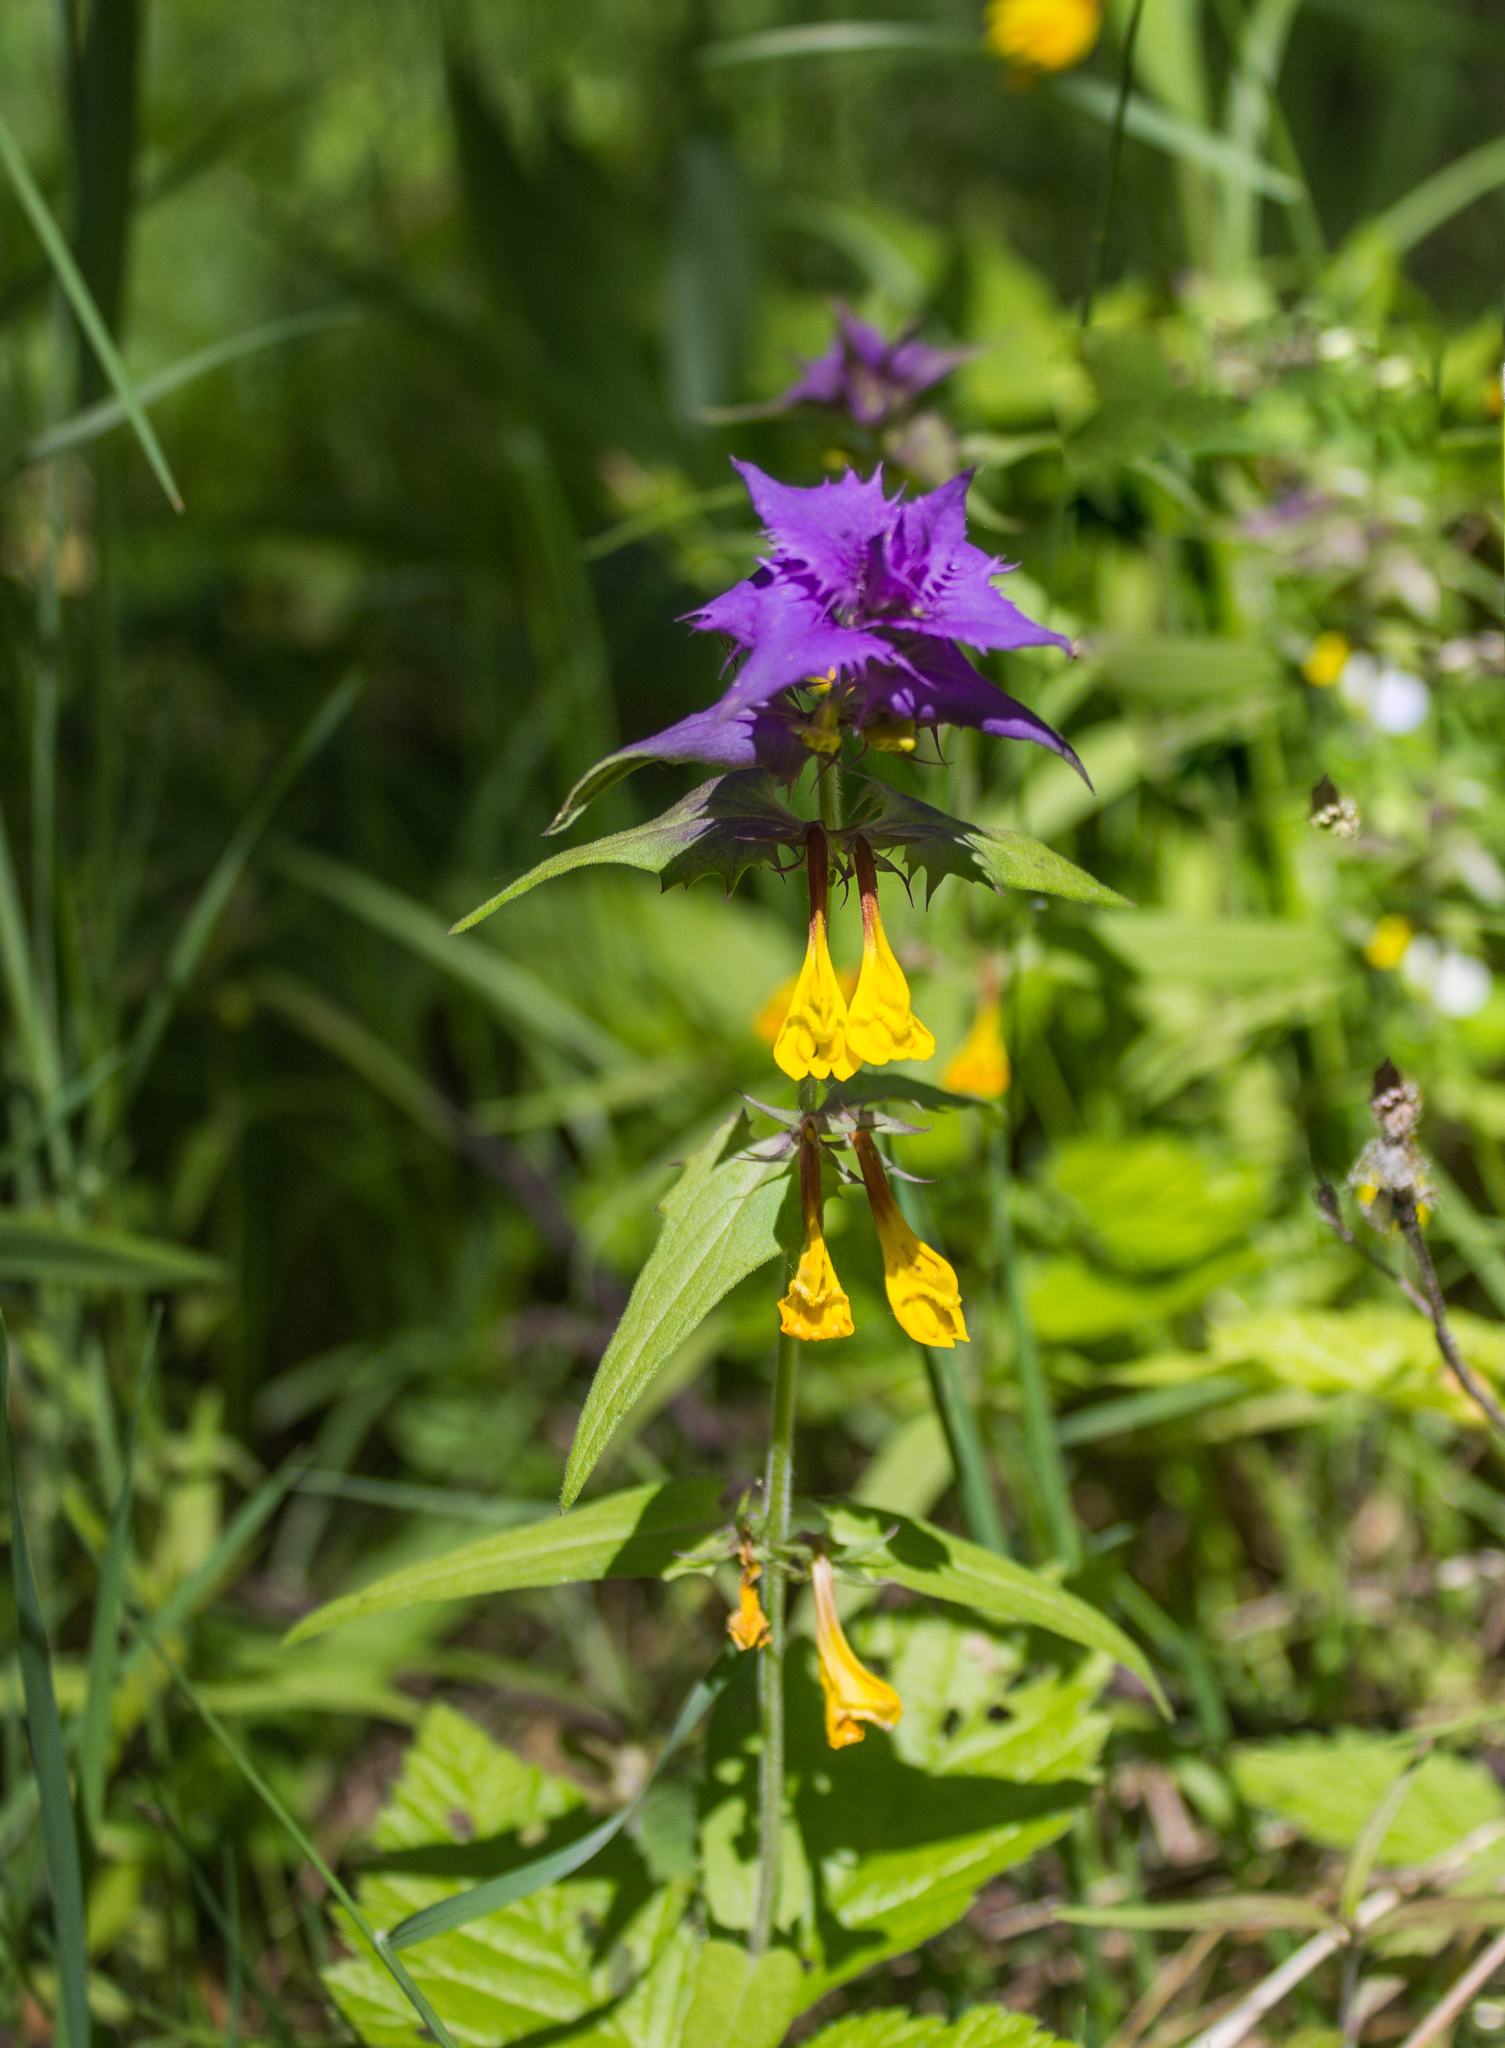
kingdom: Plantae
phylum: Tracheophyta
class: Magnoliopsida
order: Lamiales
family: Orobanchaceae
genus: Melampyrum
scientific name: Melampyrum nemorosum
